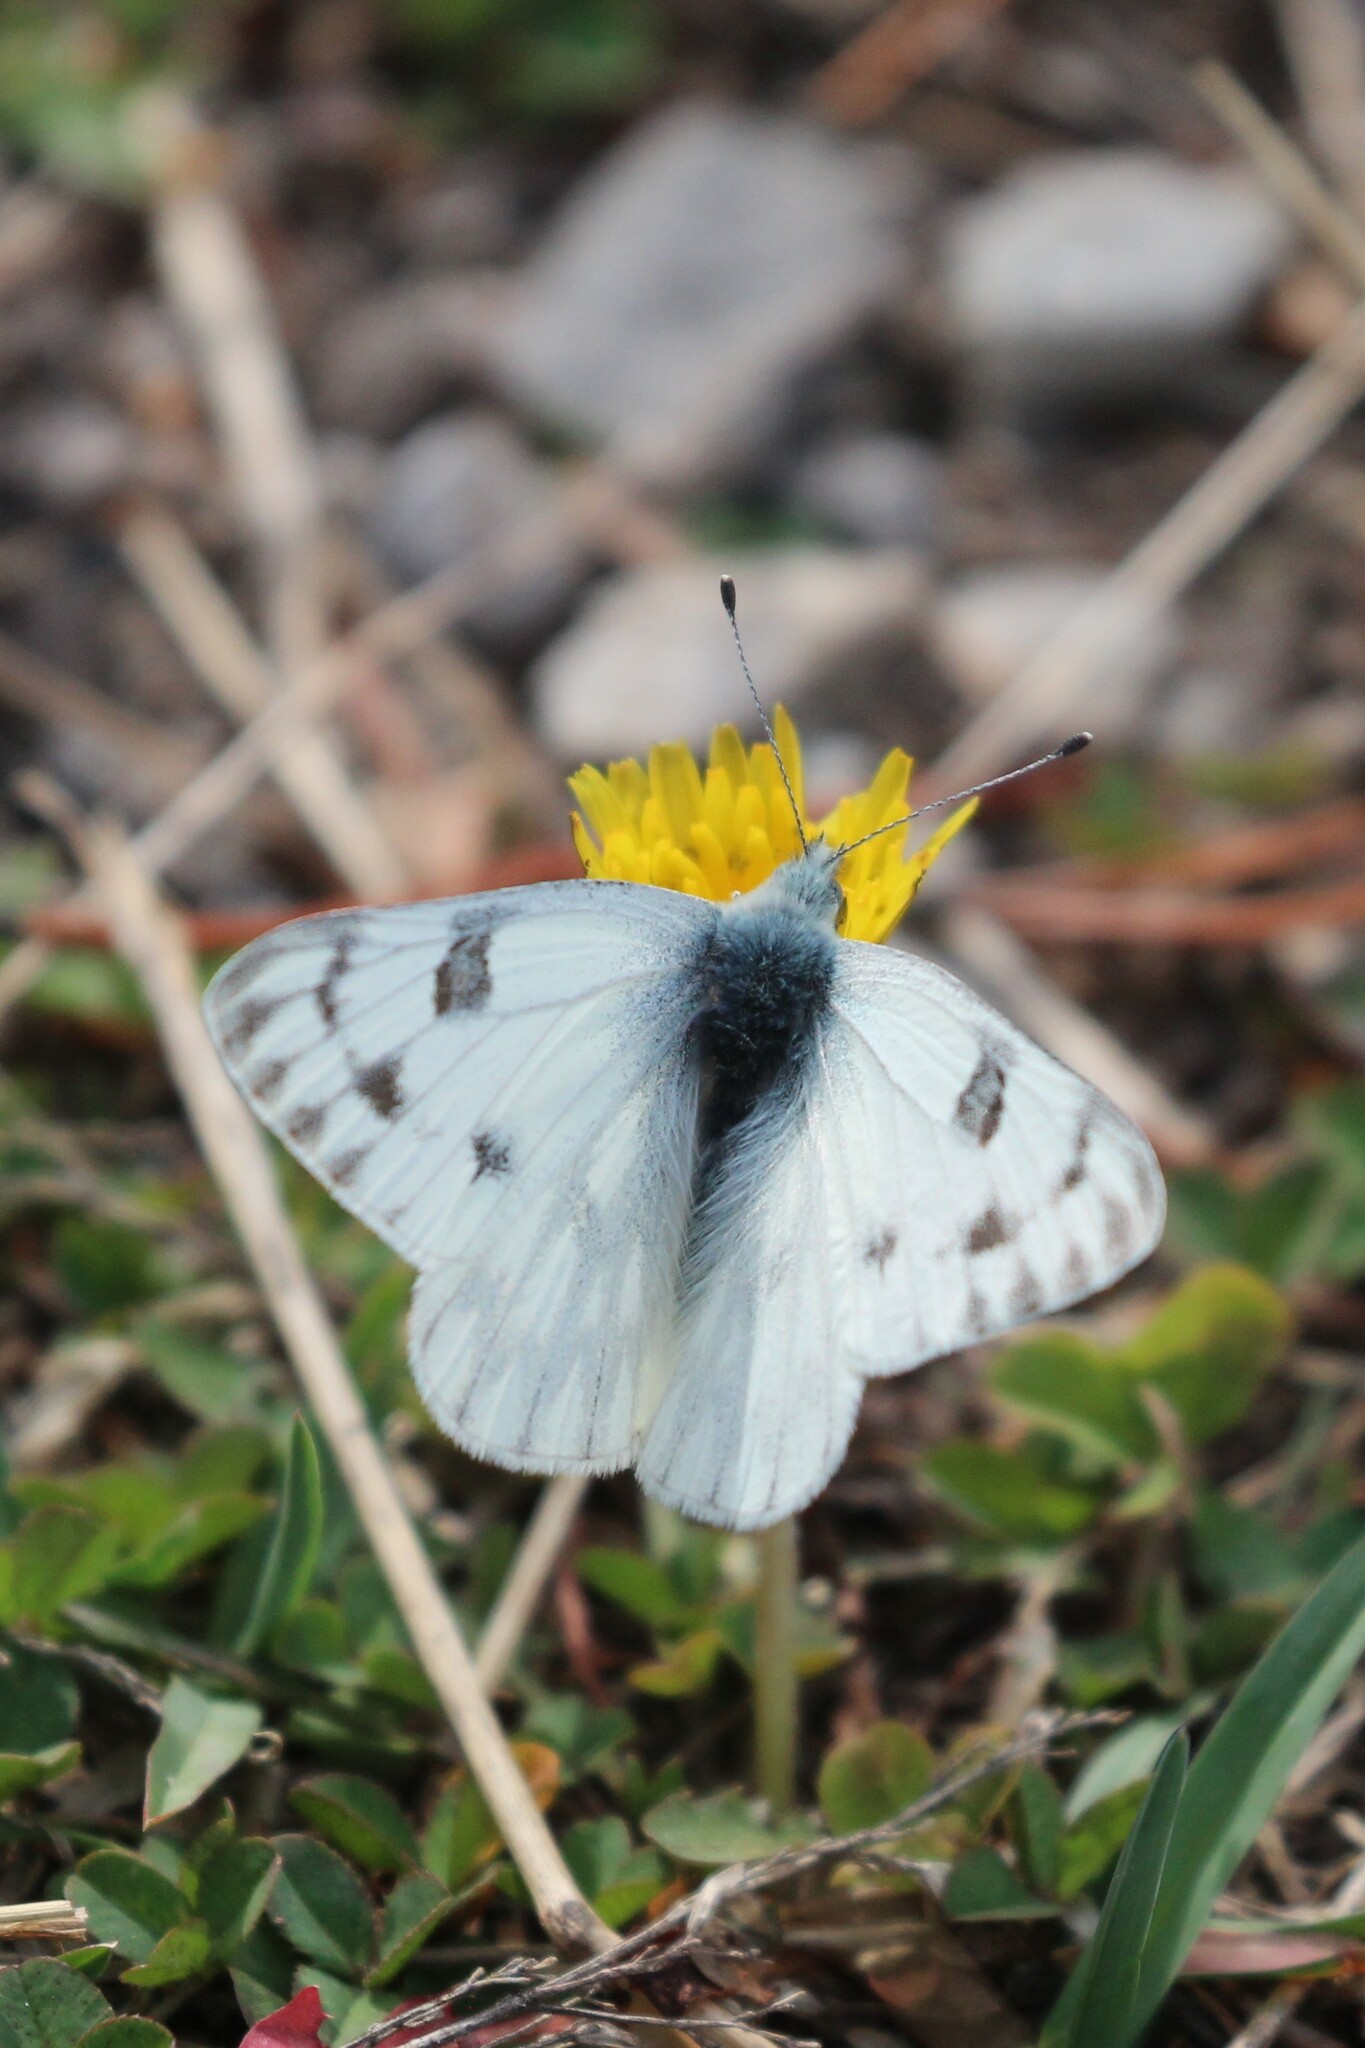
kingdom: Animalia
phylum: Arthropoda
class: Insecta
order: Lepidoptera
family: Pieridae
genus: Pontia
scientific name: Pontia occidentalis
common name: Western white
